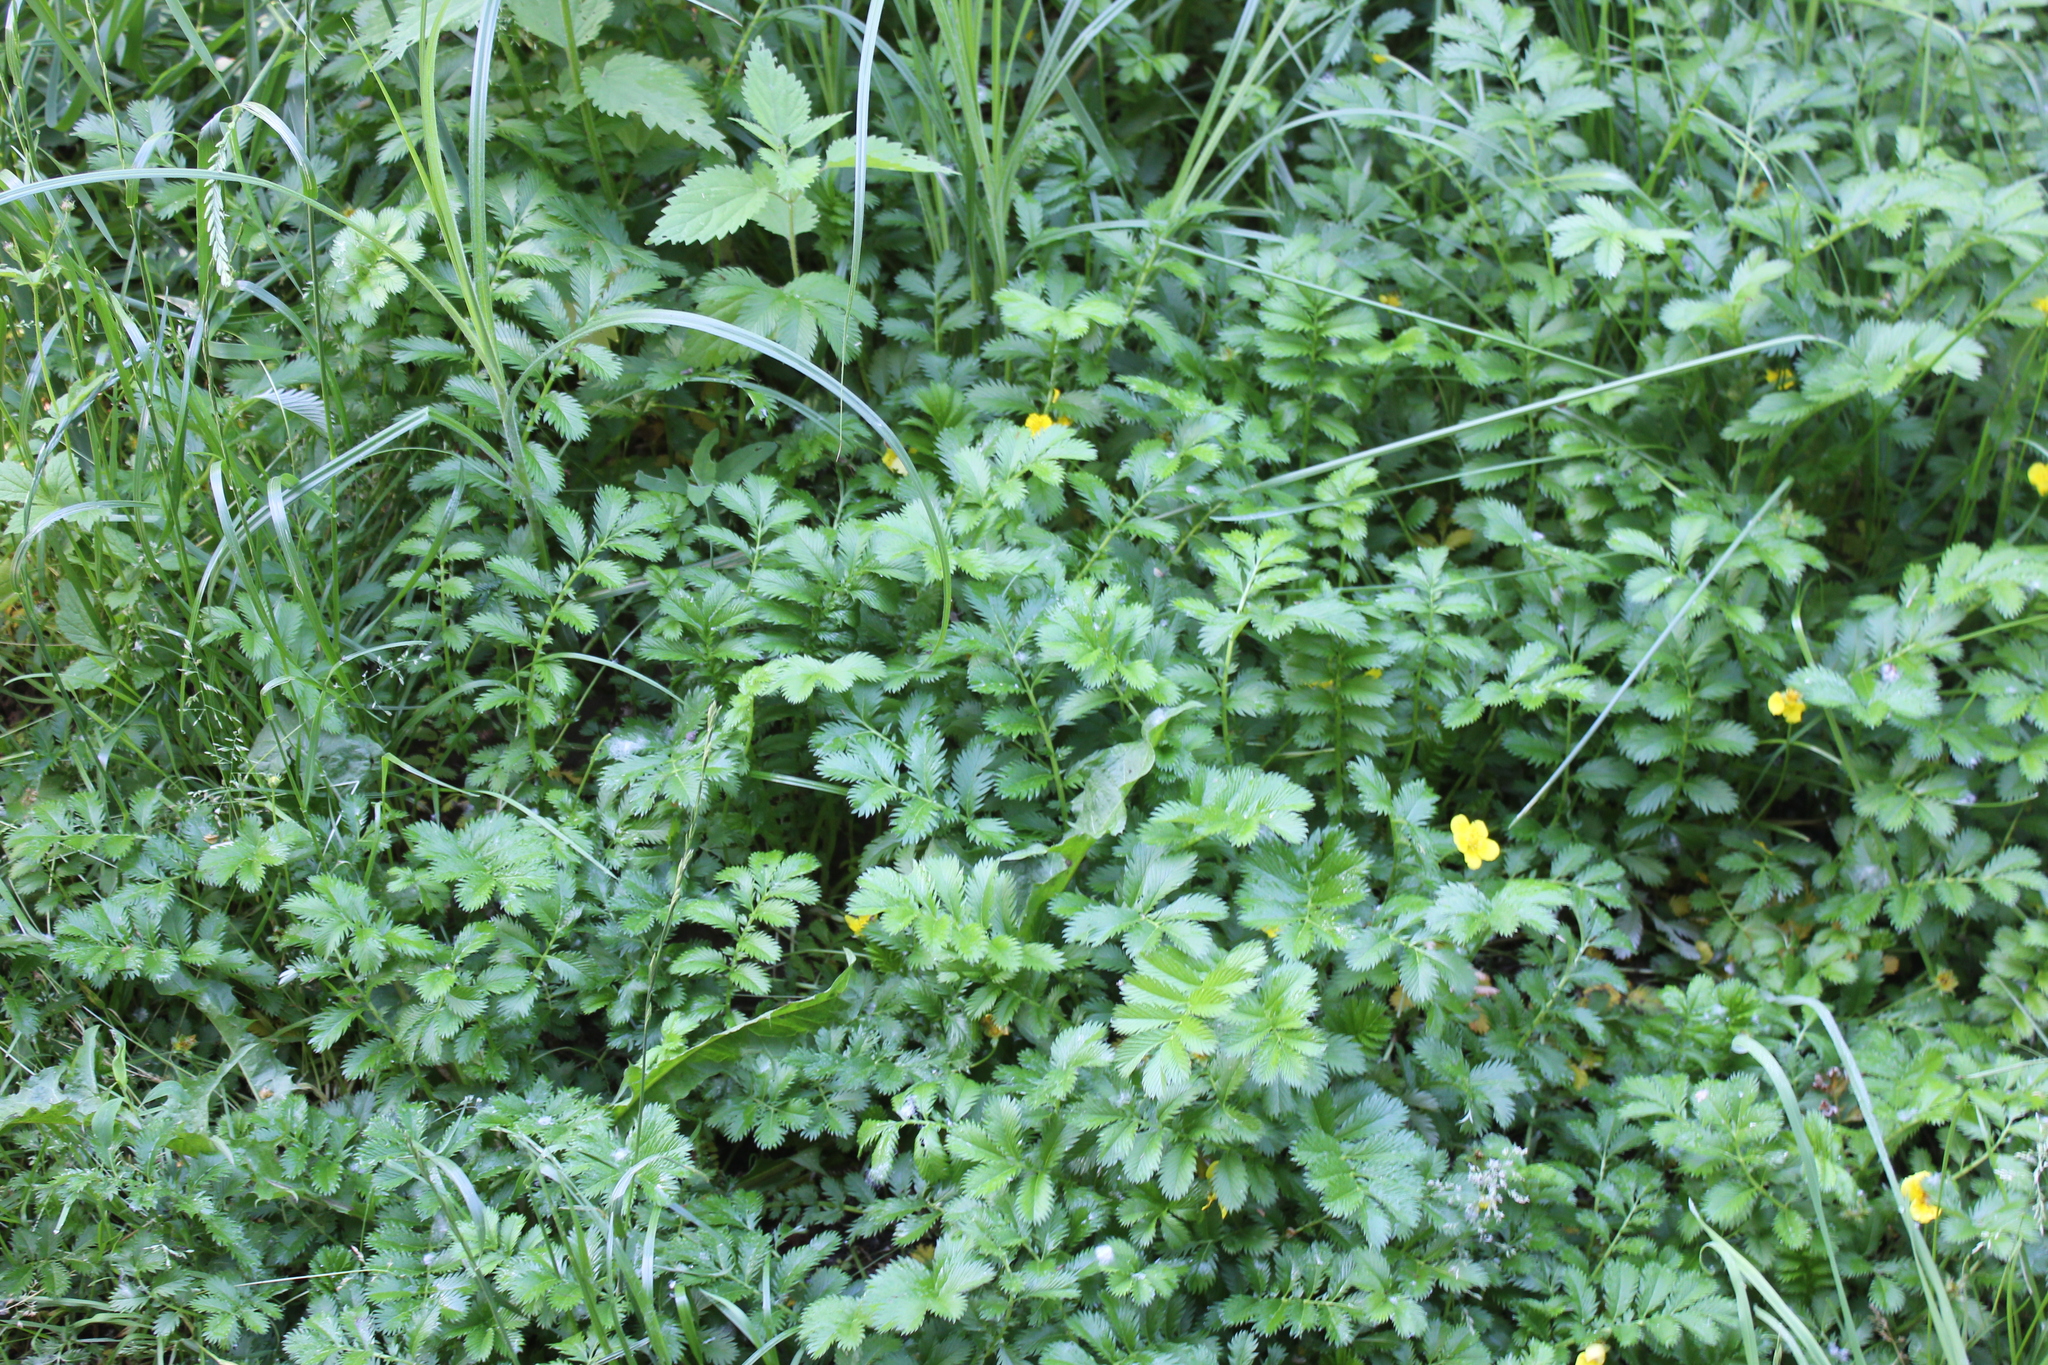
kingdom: Plantae
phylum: Tracheophyta
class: Magnoliopsida
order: Rosales
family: Rosaceae
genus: Argentina
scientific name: Argentina anserina
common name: Common silverweed
